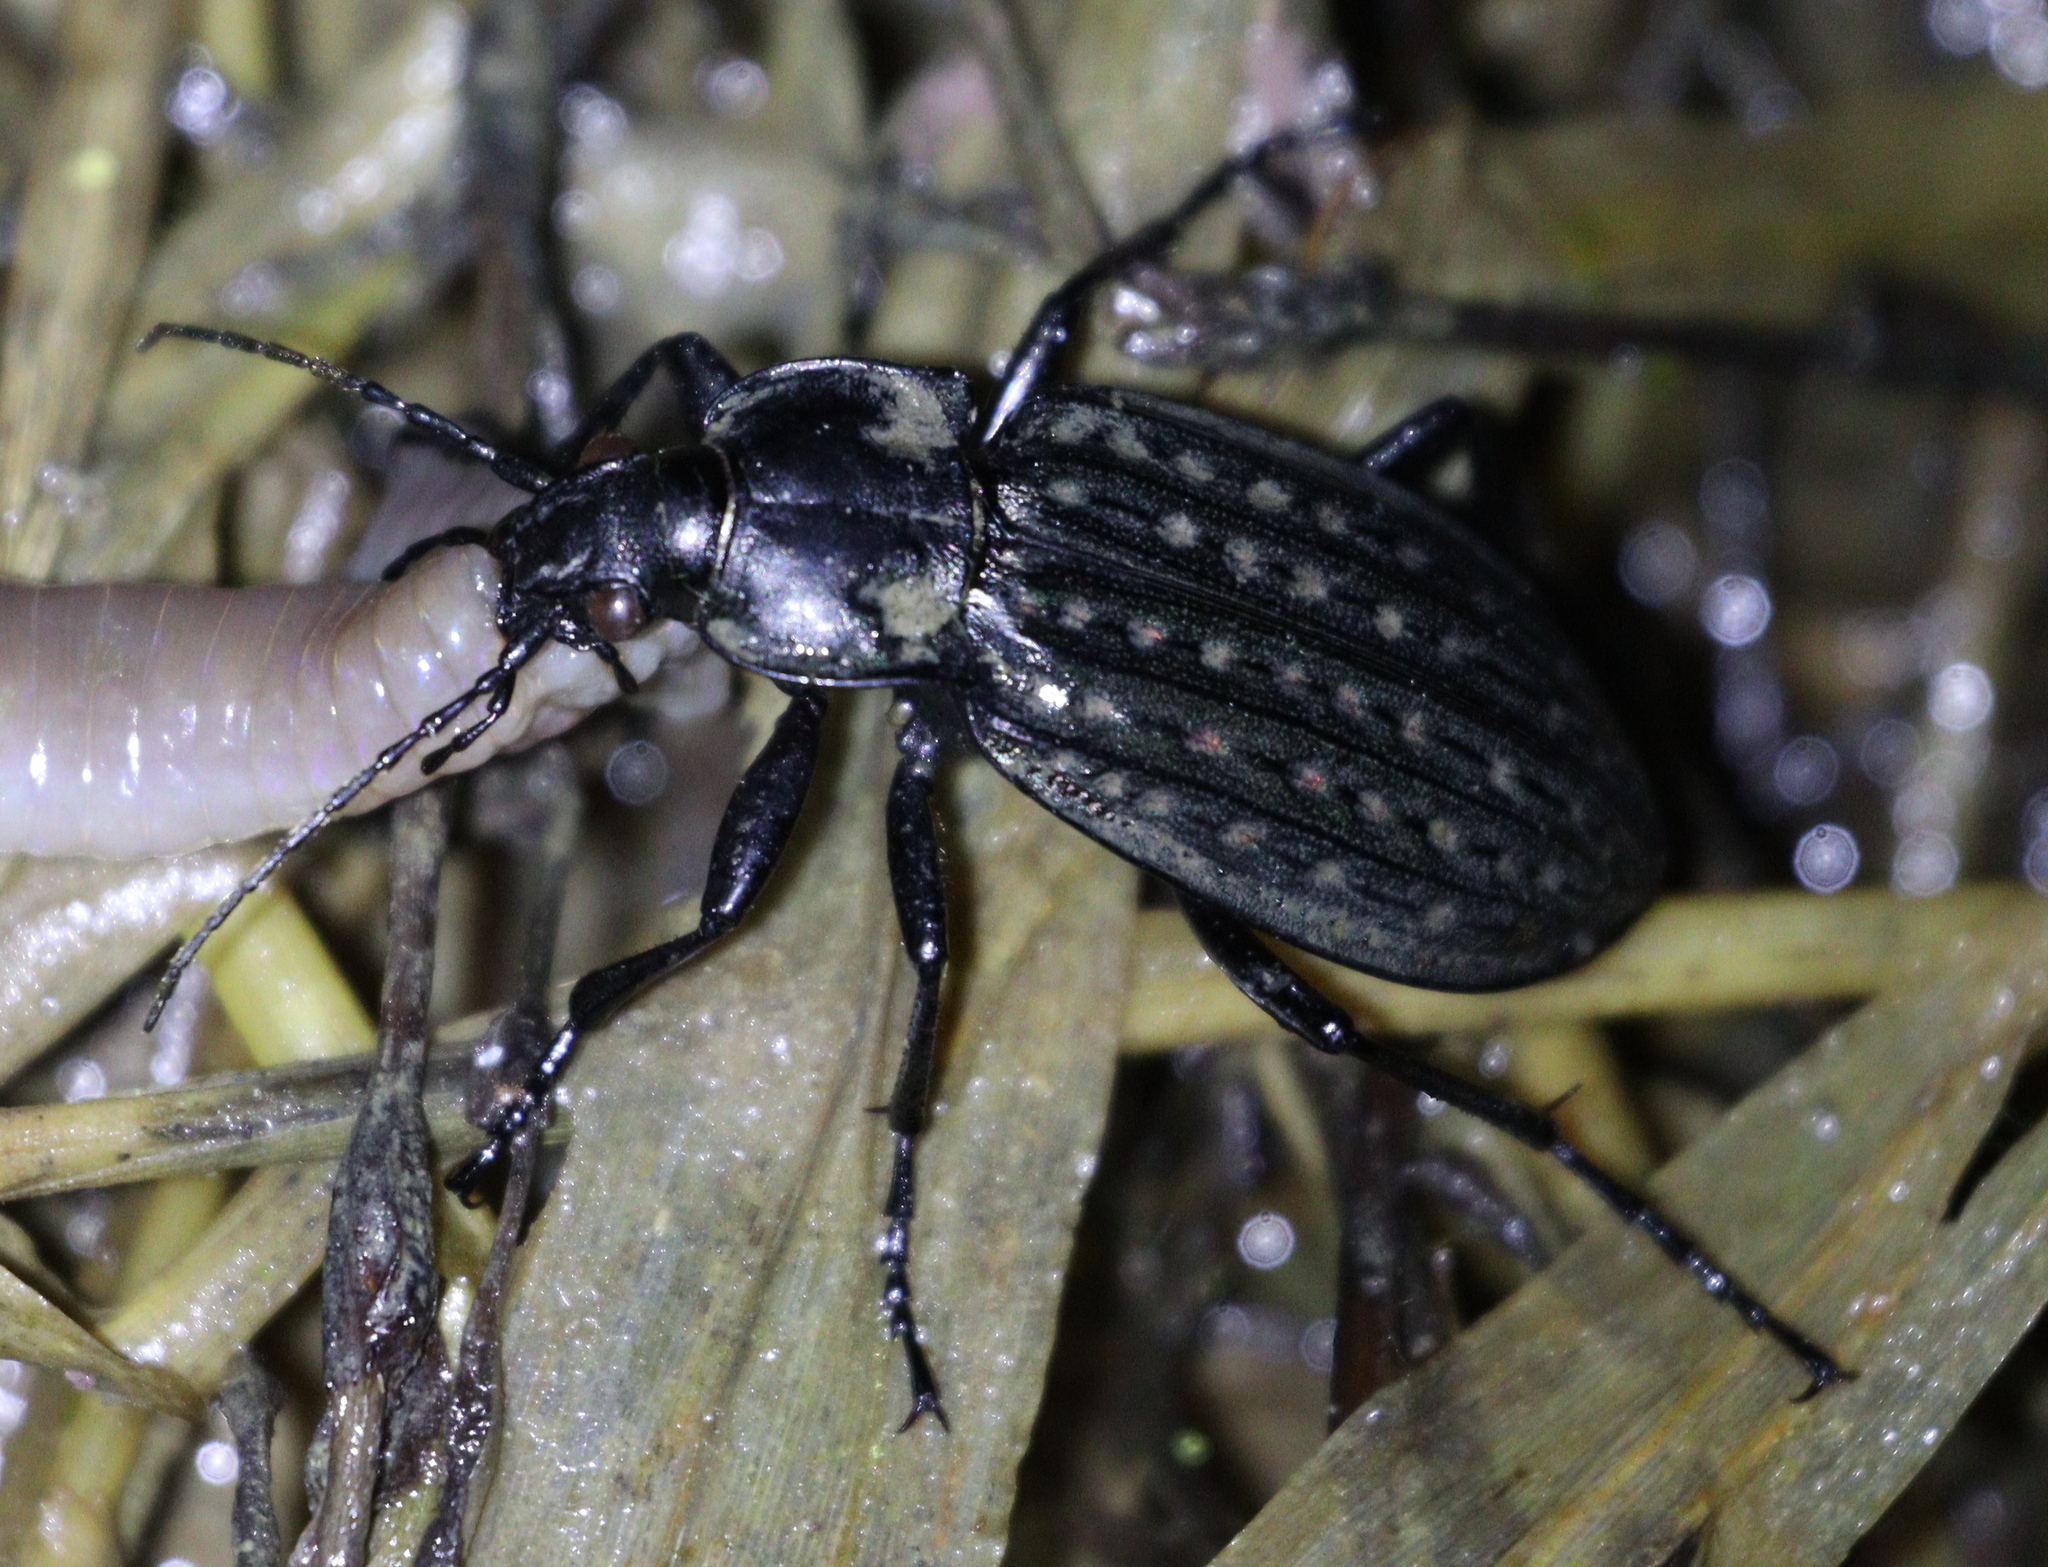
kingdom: Animalia
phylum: Arthropoda
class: Insecta
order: Coleoptera
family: Carabidae
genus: Carabus
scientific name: Carabus clatratus
